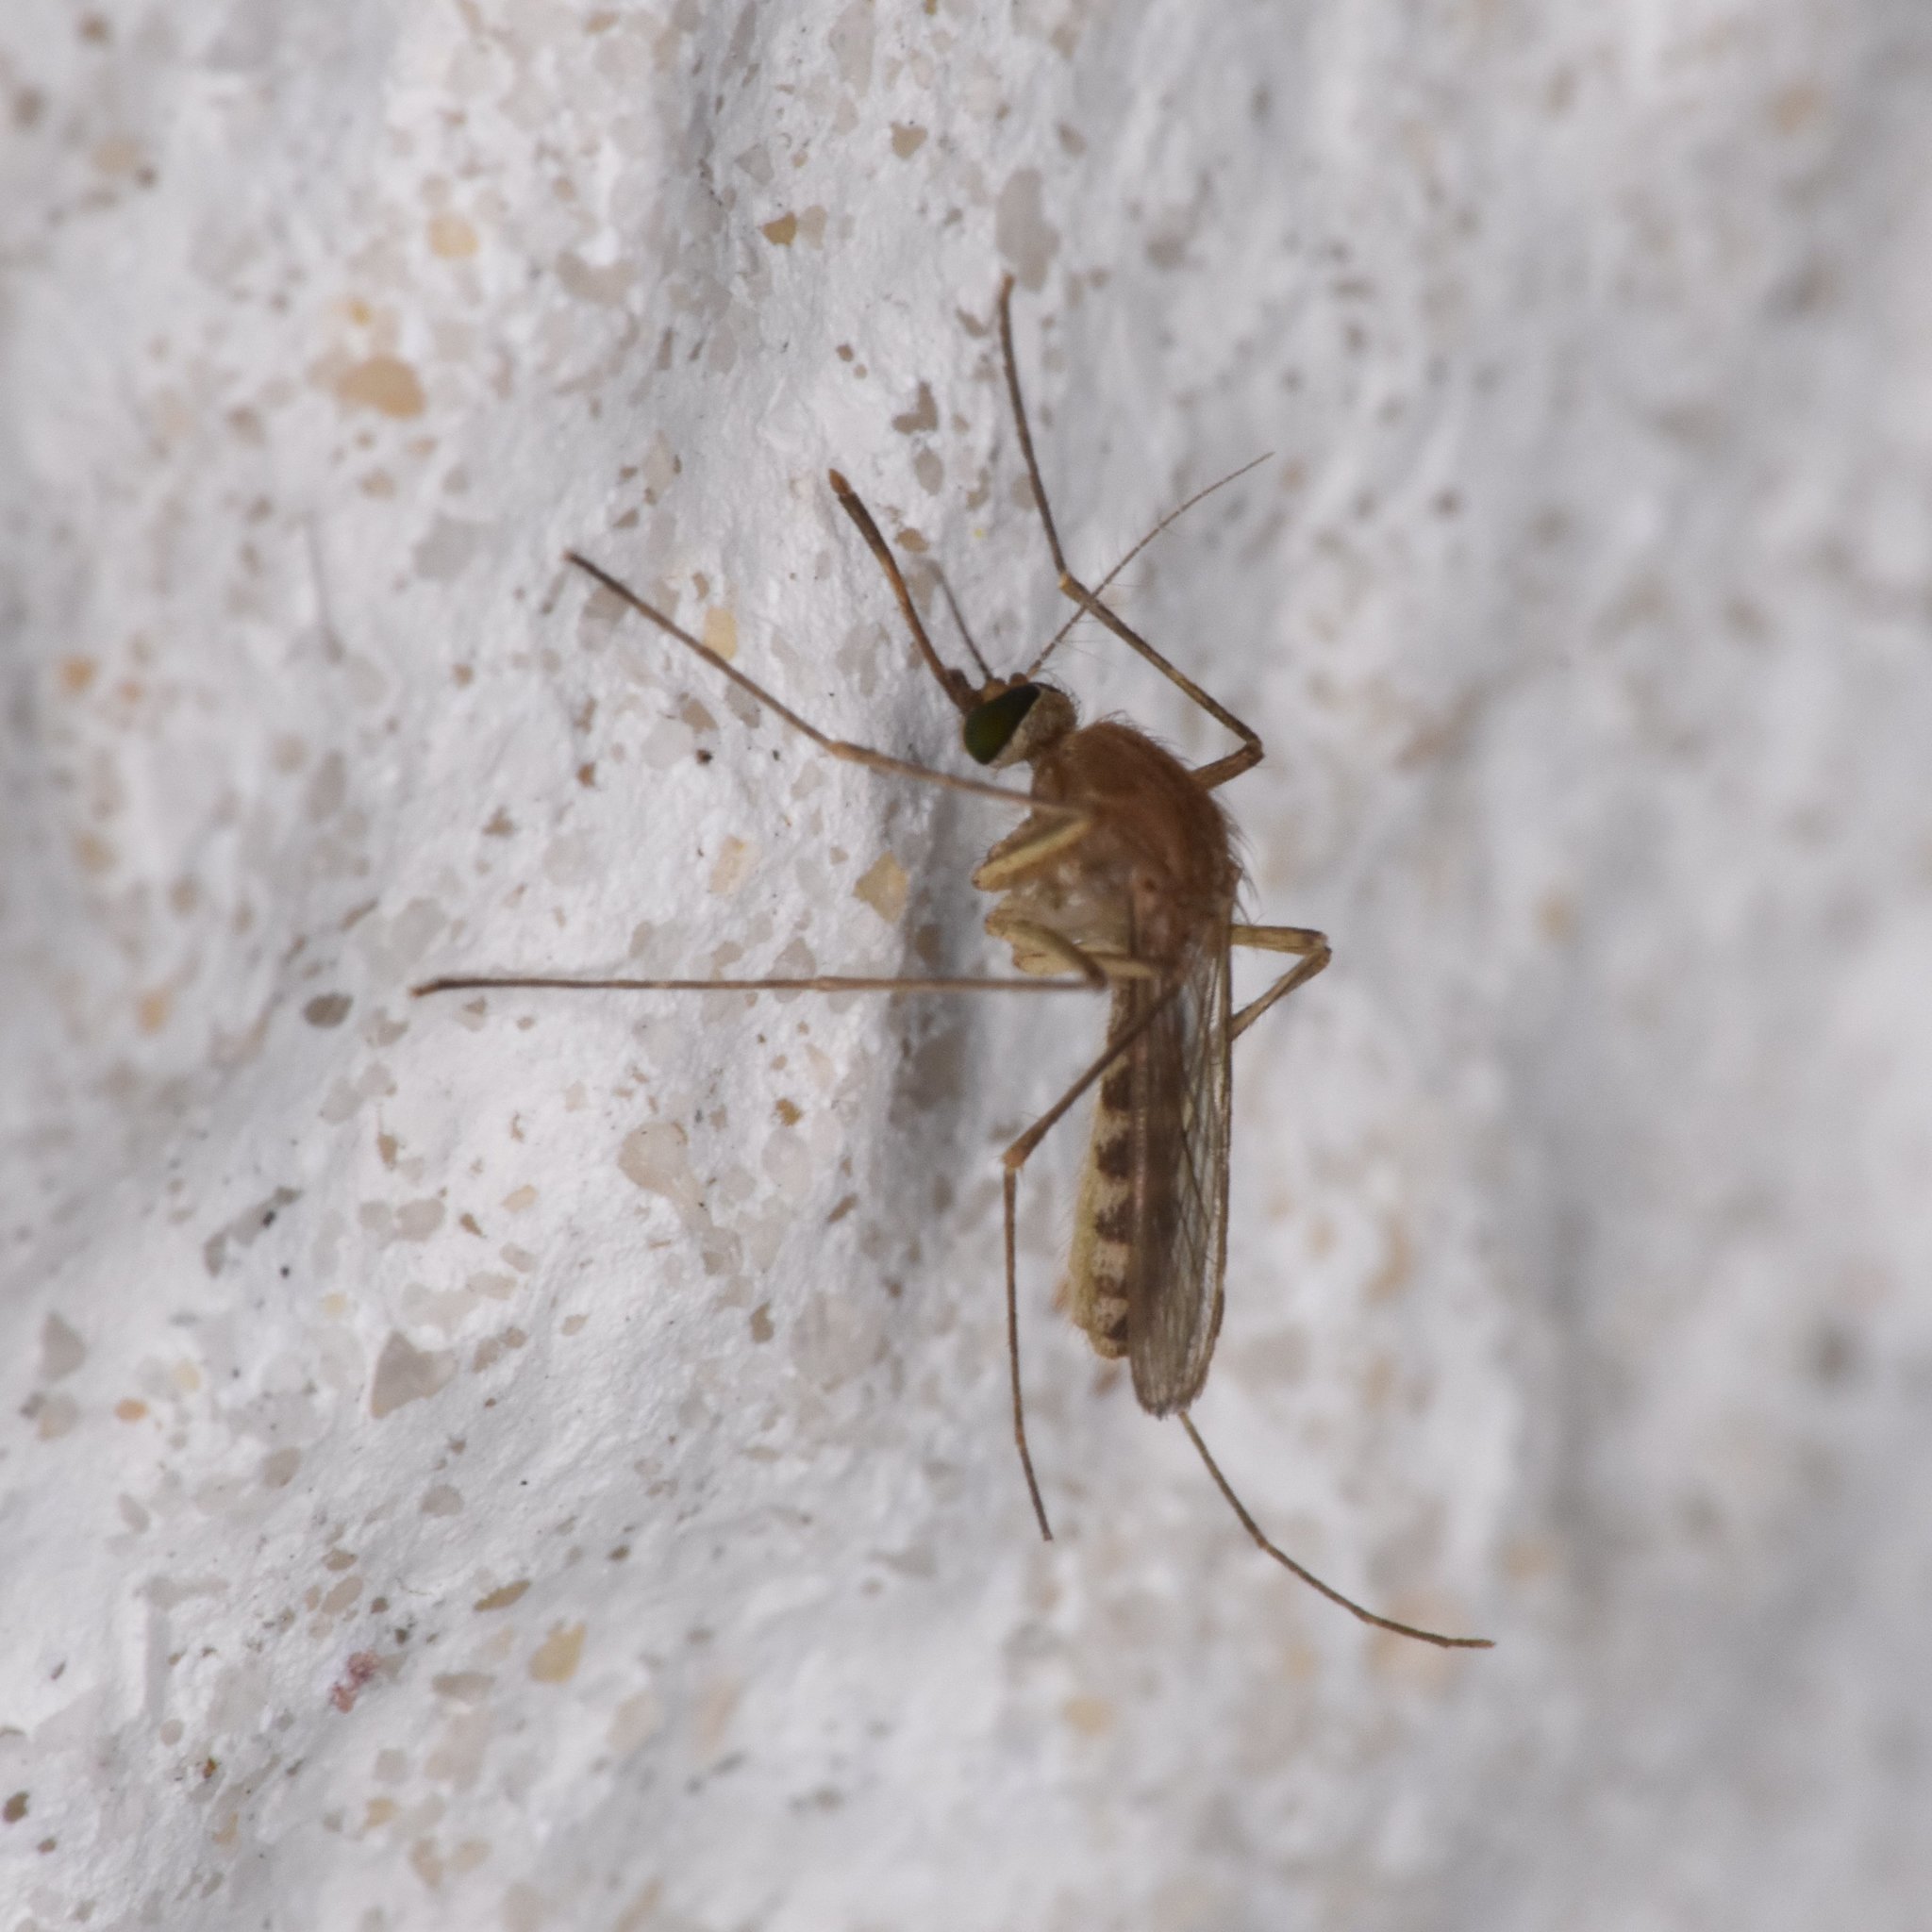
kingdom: Animalia
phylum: Arthropoda
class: Insecta
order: Diptera
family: Culicidae
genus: Culex
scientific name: Culex nigripalpus
